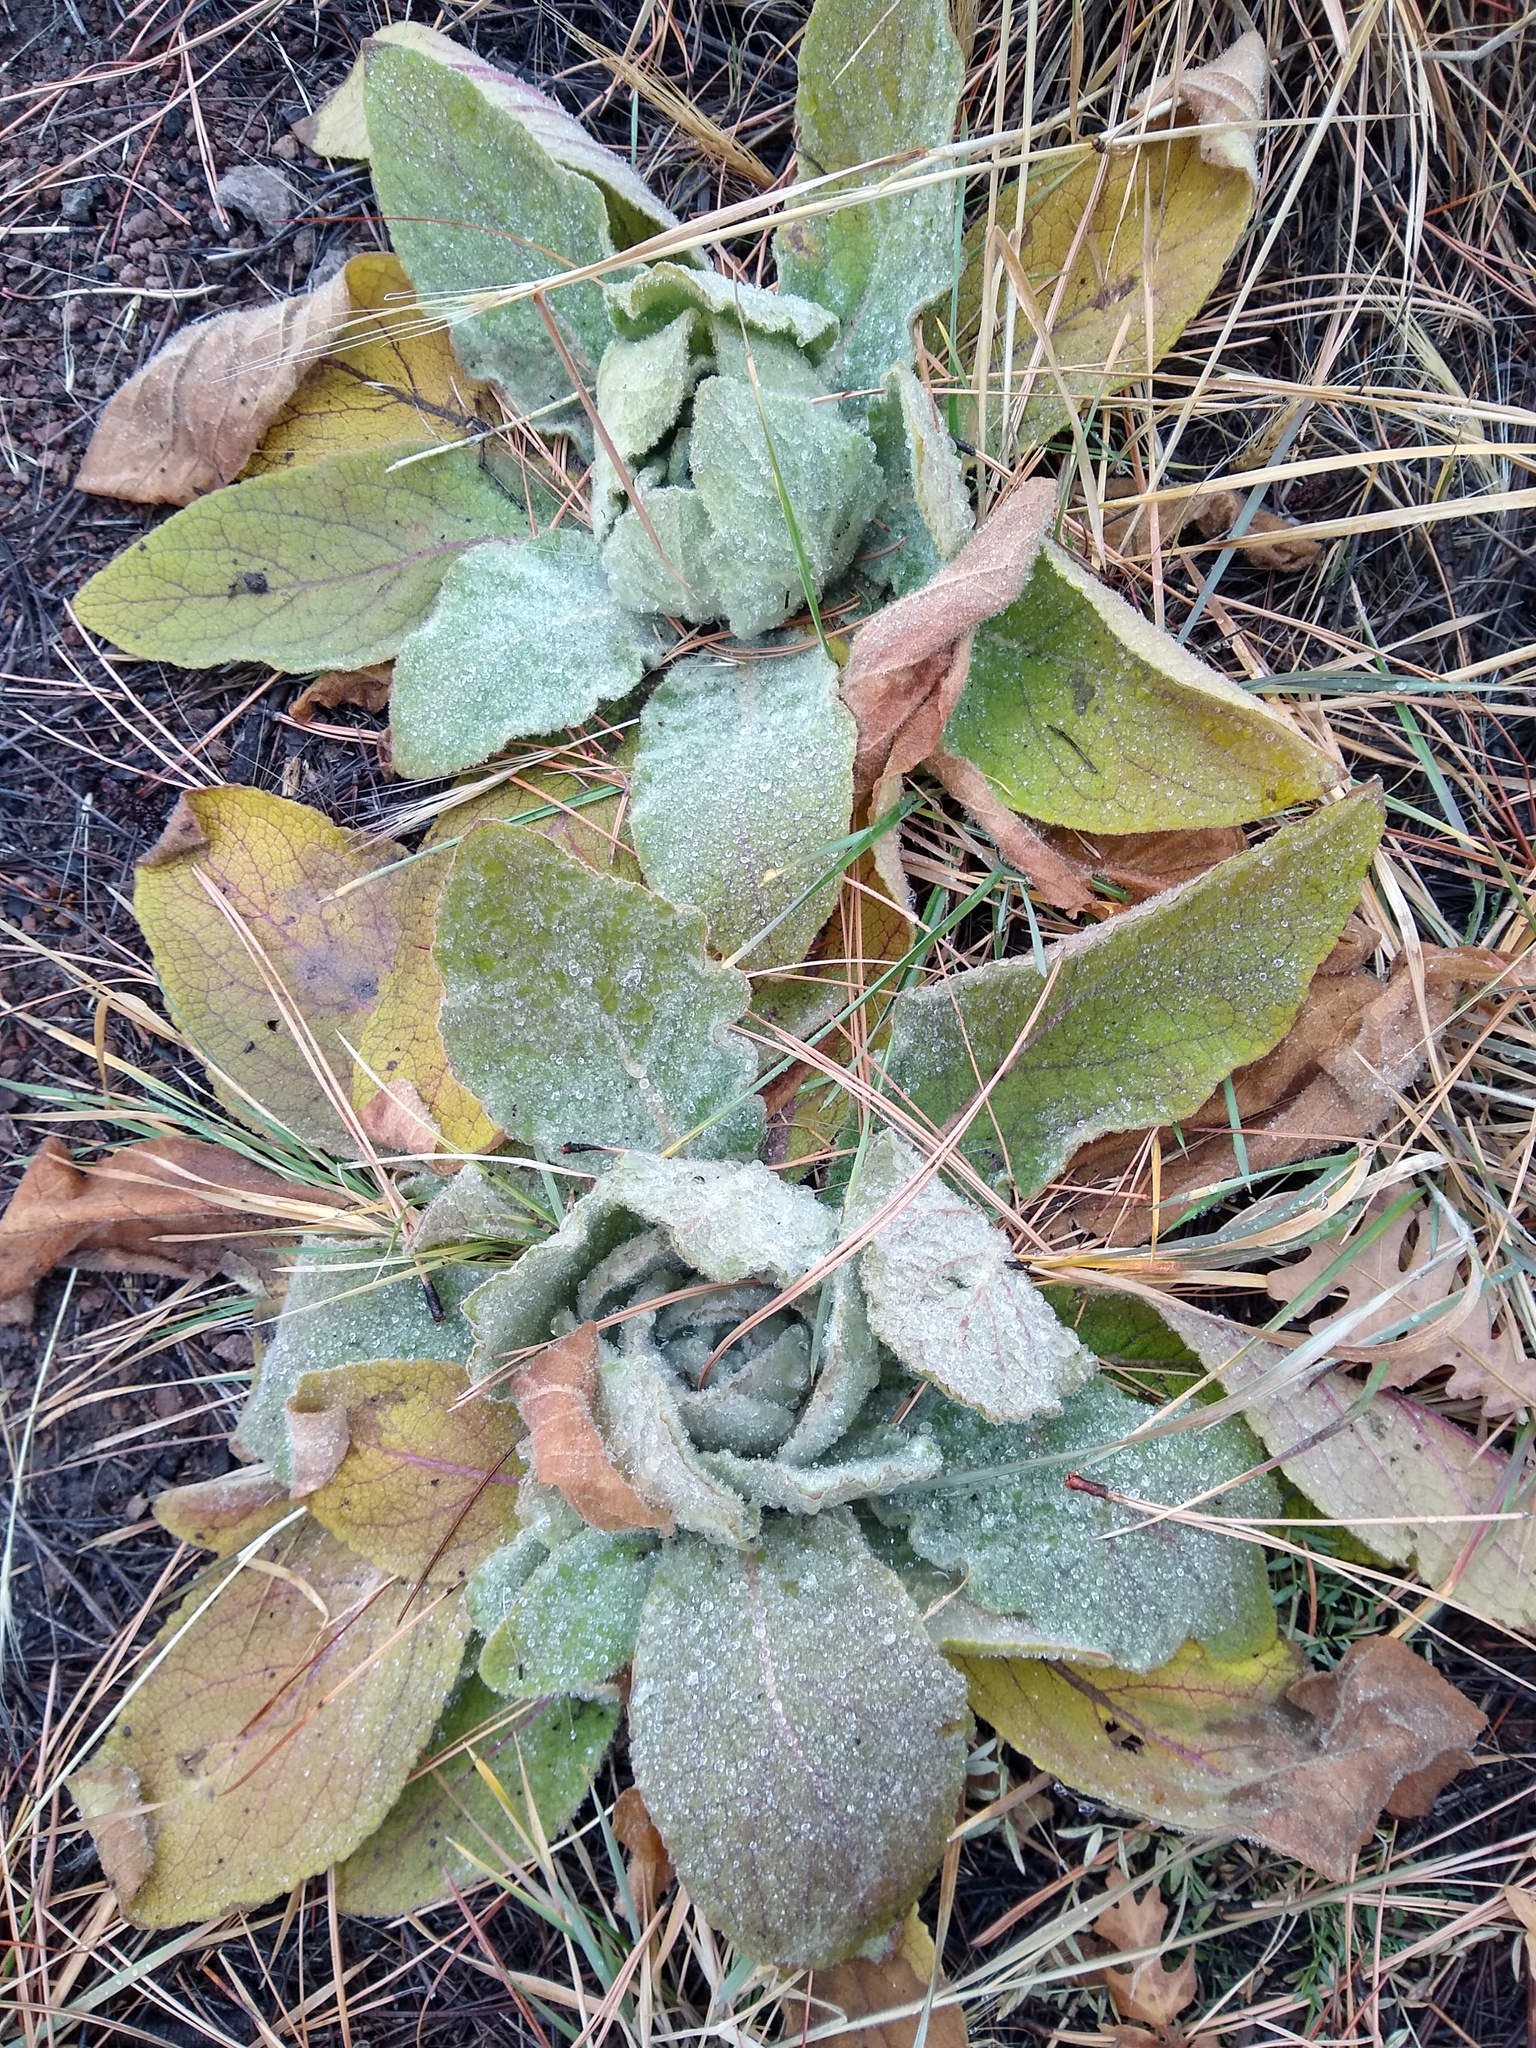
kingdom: Plantae
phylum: Tracheophyta
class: Magnoliopsida
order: Lamiales
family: Scrophulariaceae
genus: Verbascum
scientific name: Verbascum thapsus
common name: Common mullein
